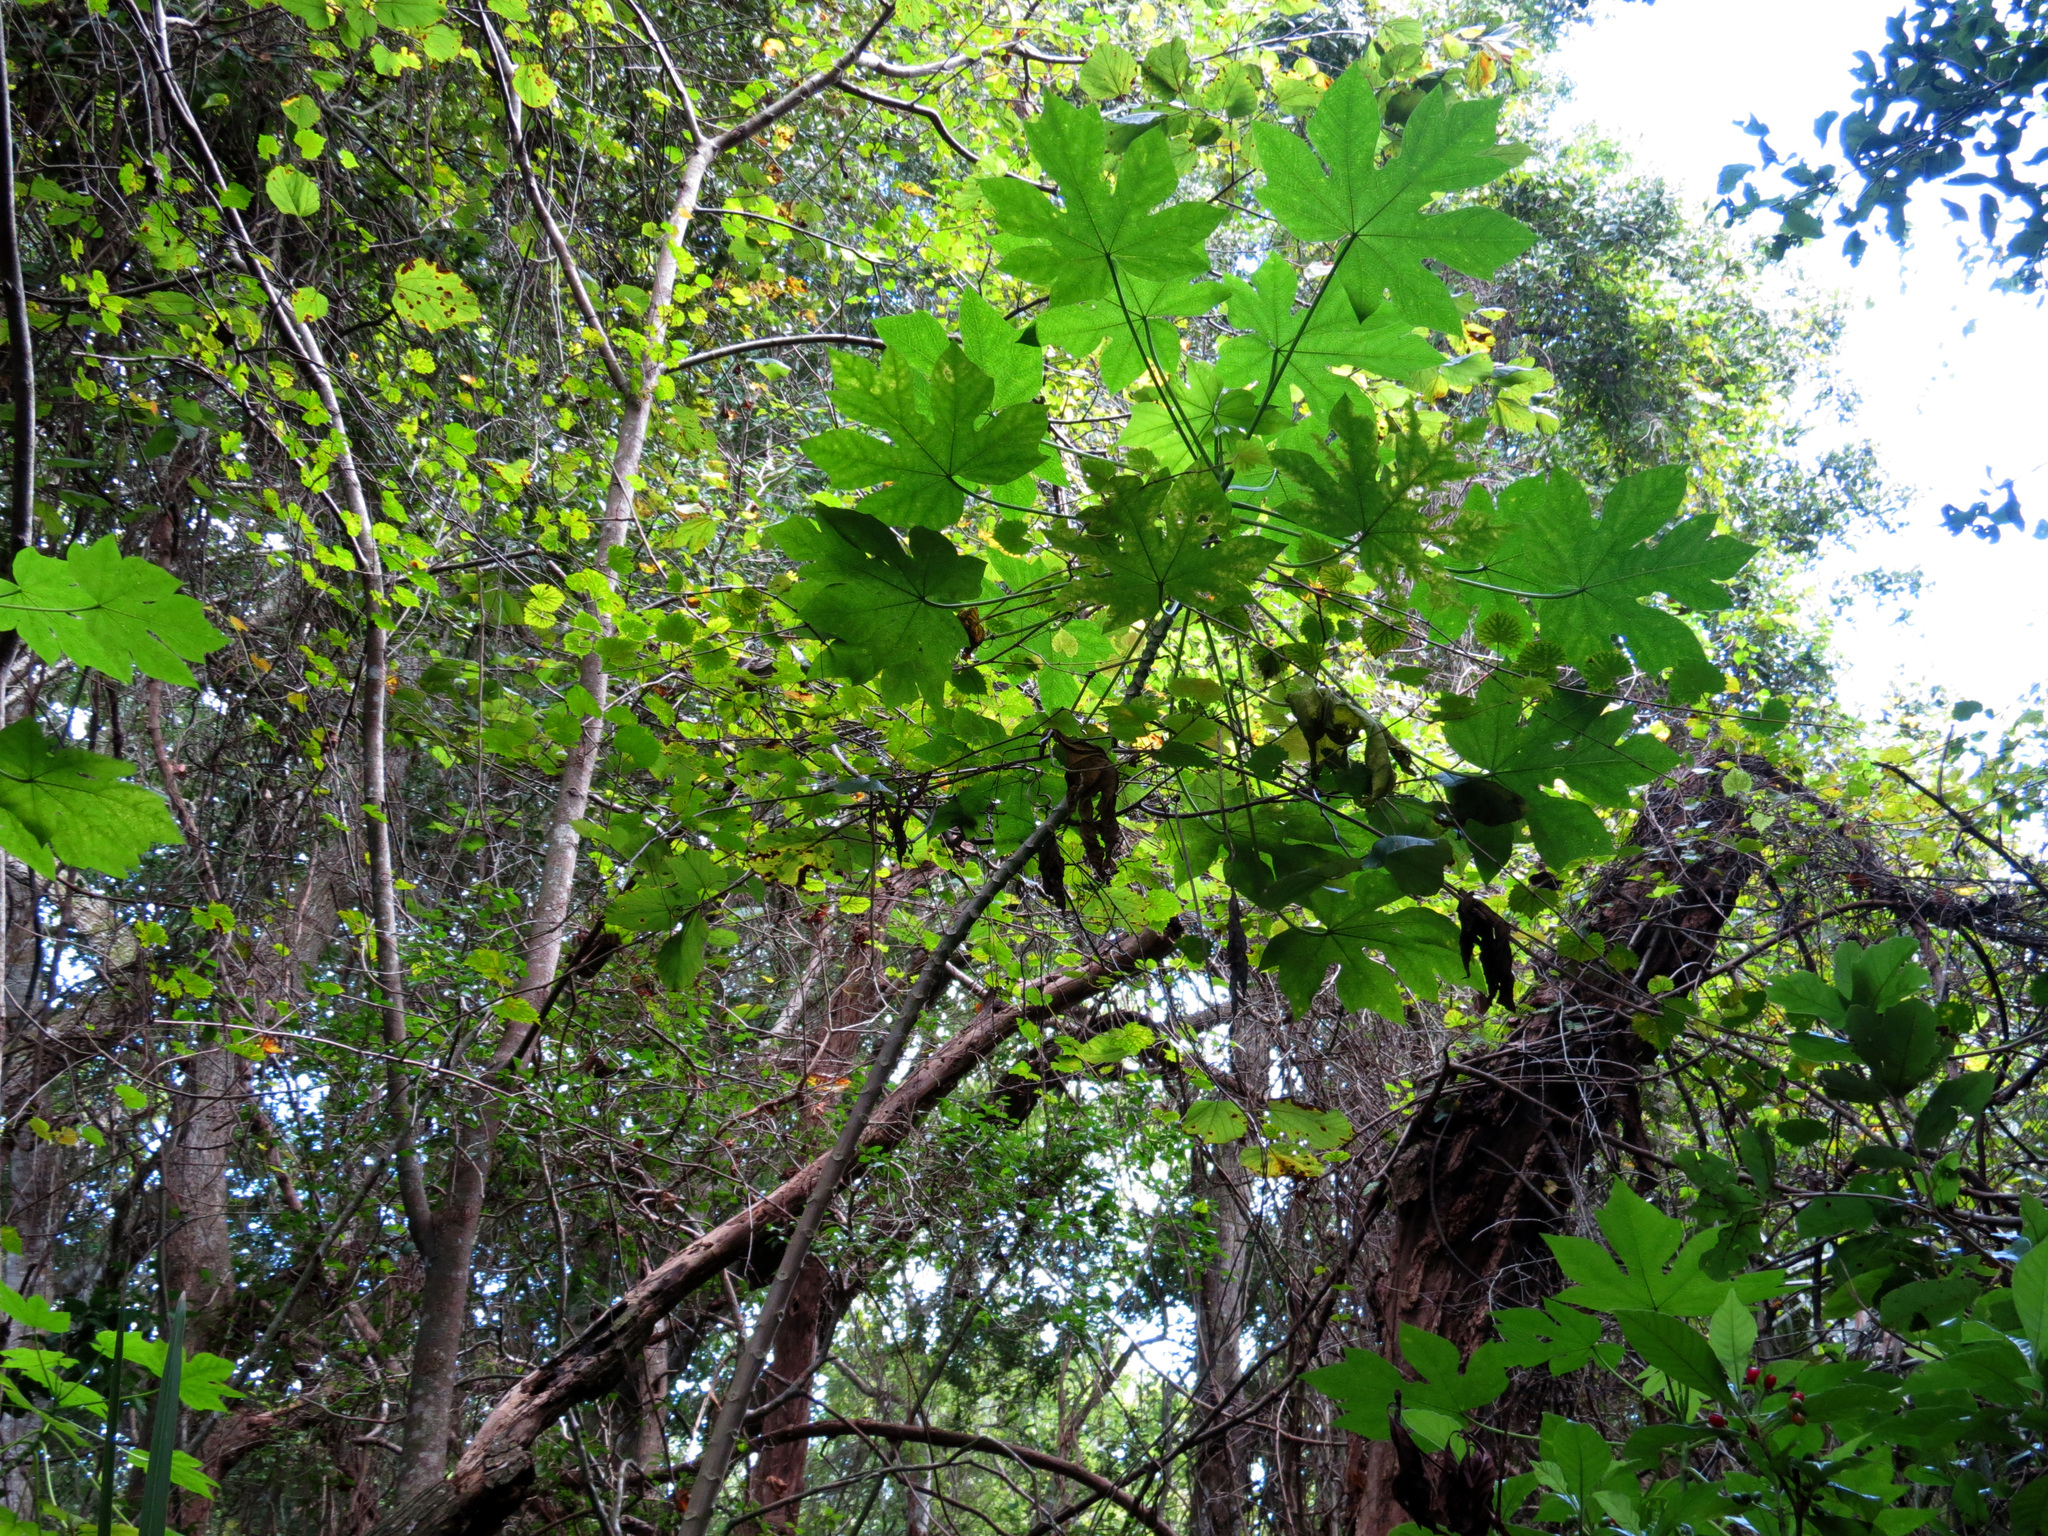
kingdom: Plantae
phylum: Tracheophyta
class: Magnoliopsida
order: Brassicales
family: Caricaceae
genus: Carica
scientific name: Carica papaya
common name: Papaya
